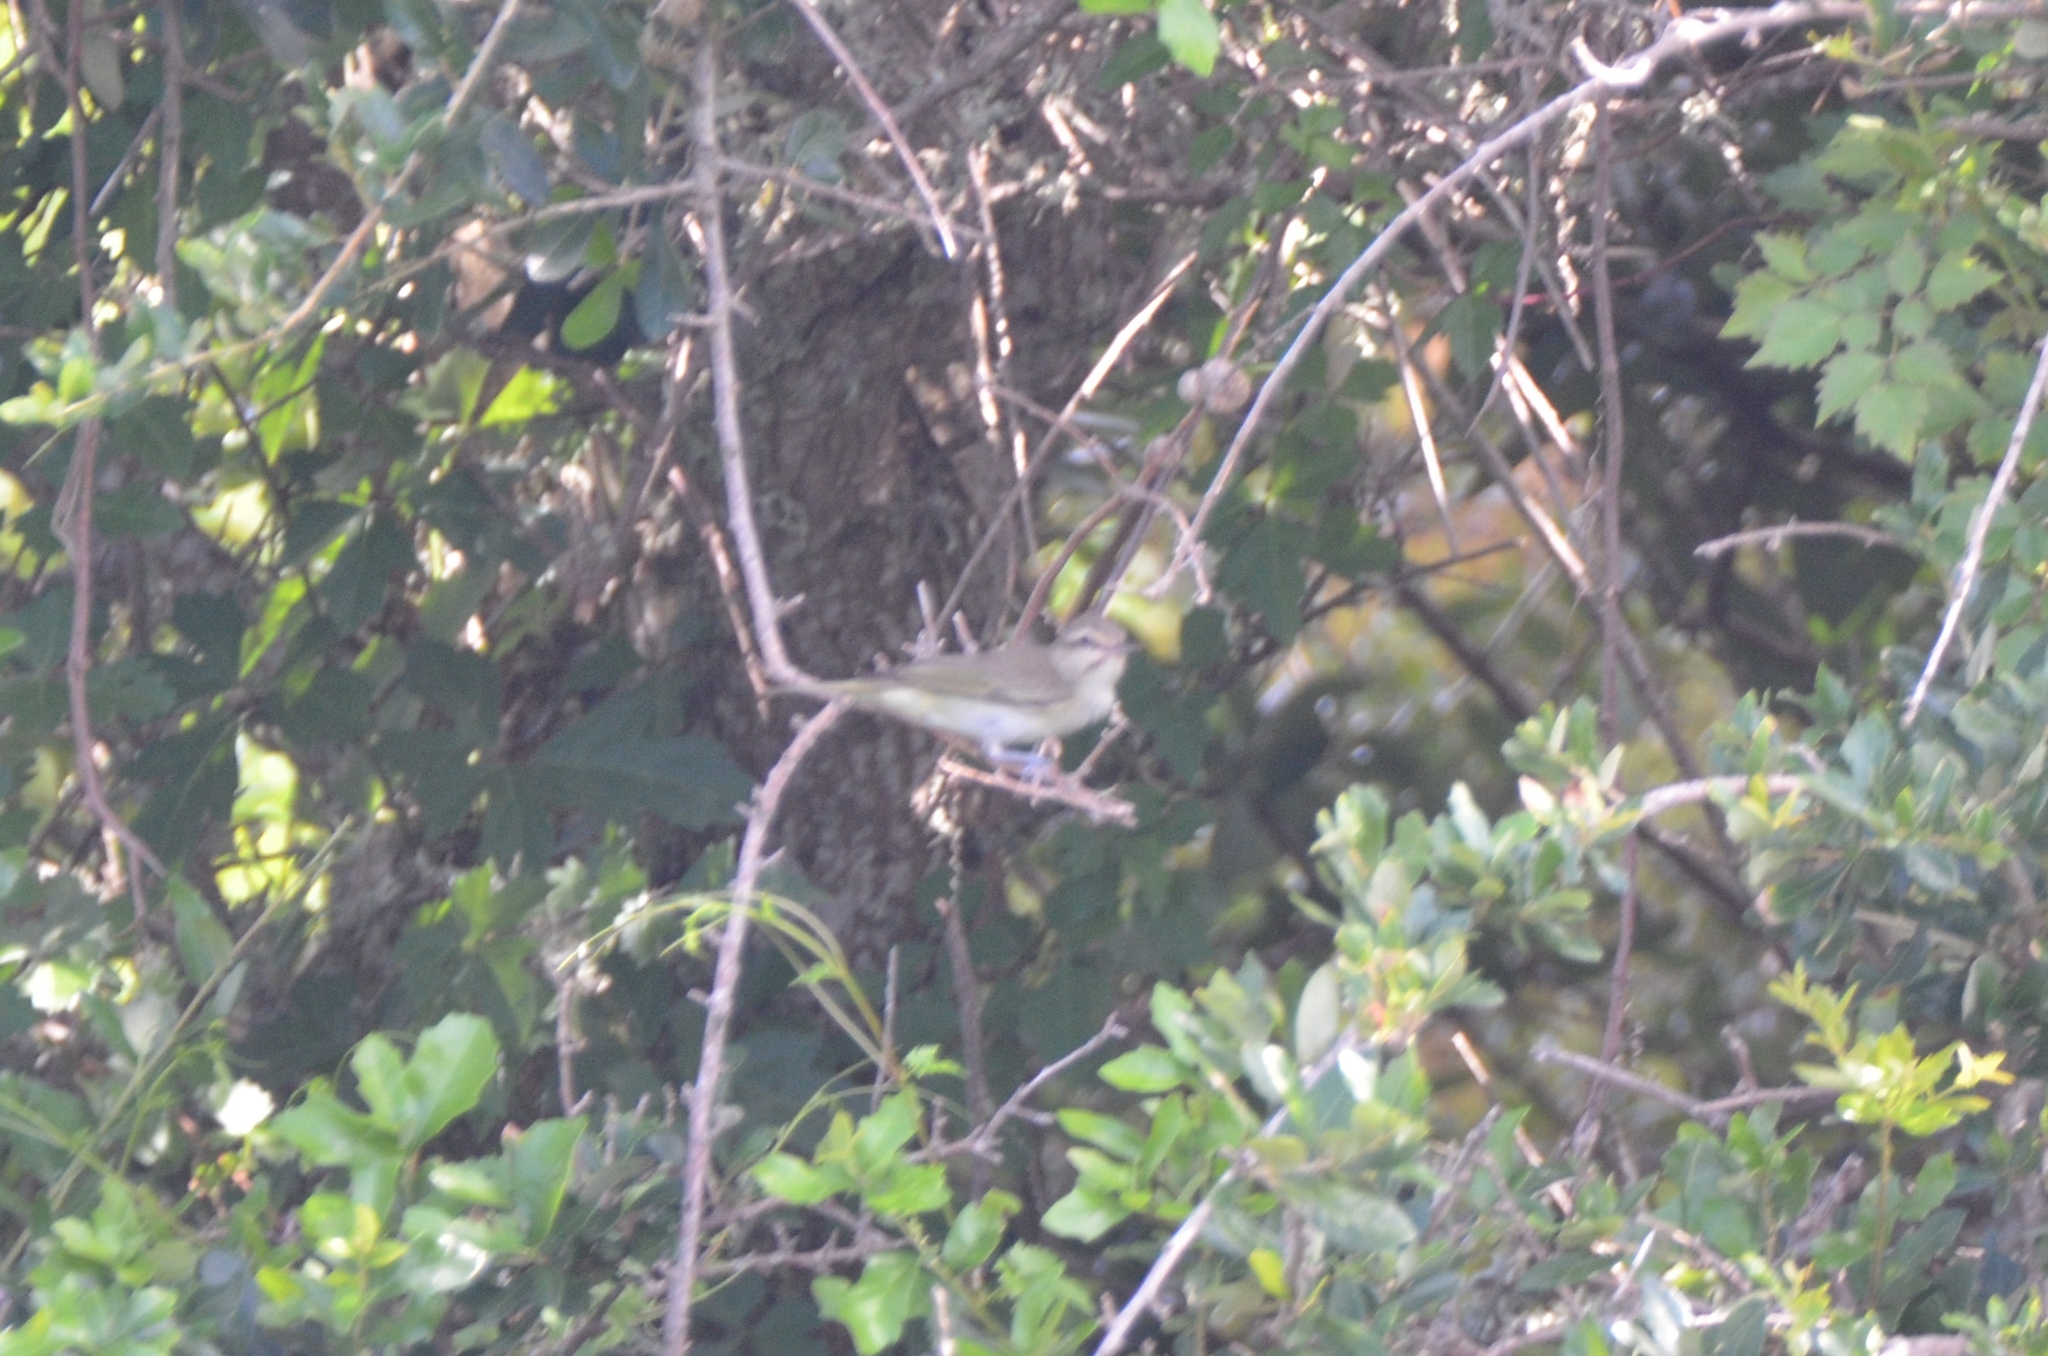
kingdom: Animalia
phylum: Chordata
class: Aves
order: Passeriformes
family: Vireonidae
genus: Vireo
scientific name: Vireo altiloquus
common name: Black-whiskered vireo
